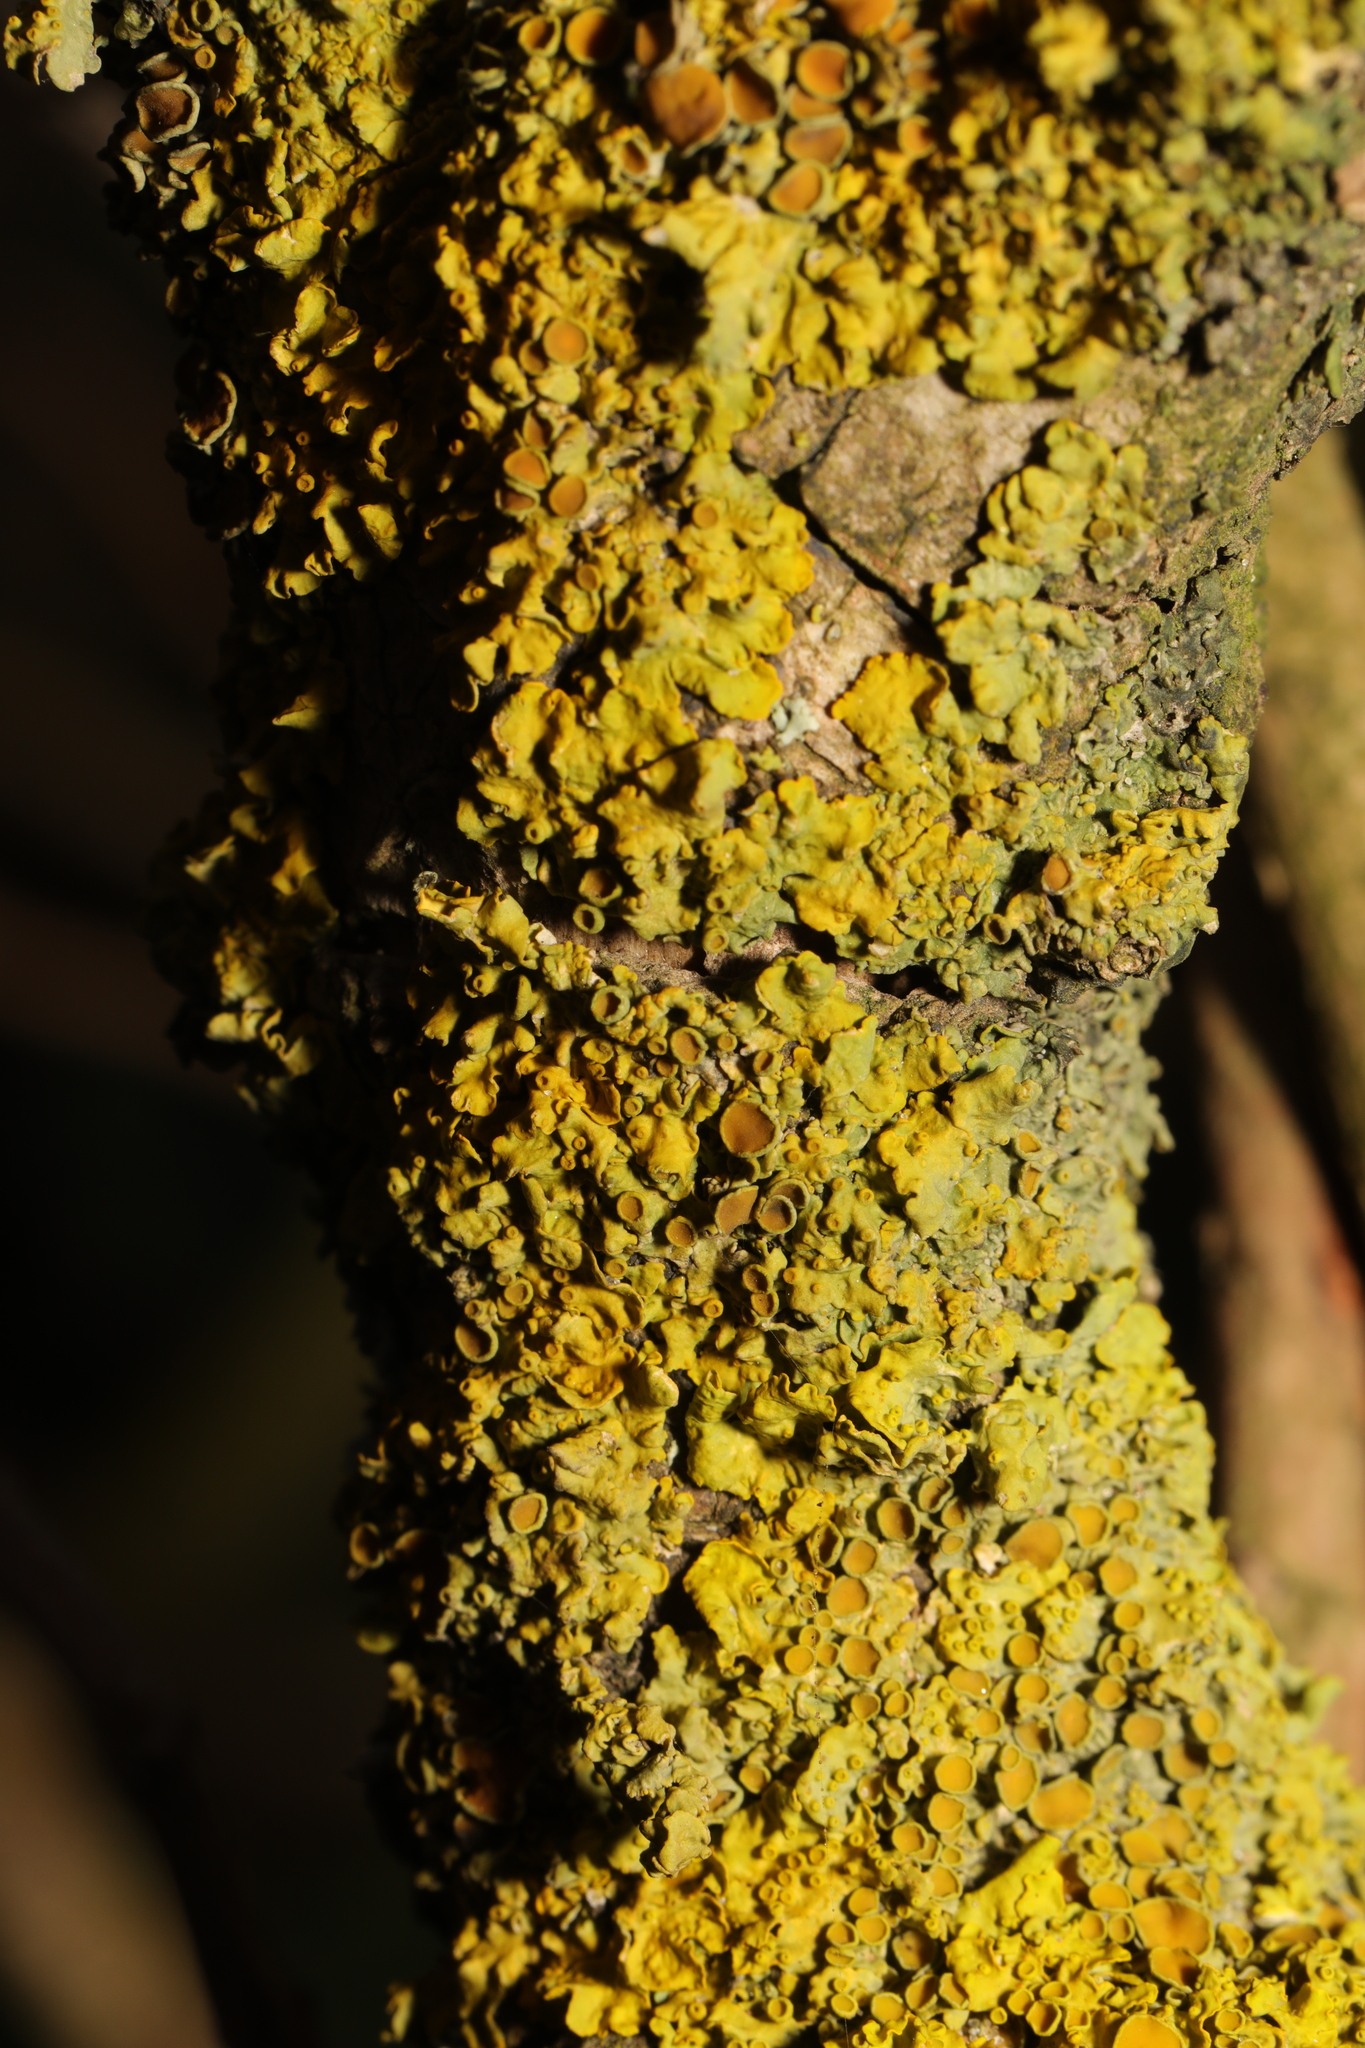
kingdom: Fungi
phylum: Ascomycota
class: Lecanoromycetes
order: Teloschistales
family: Teloschistaceae
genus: Xanthoria
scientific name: Xanthoria parietina
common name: Common orange lichen
